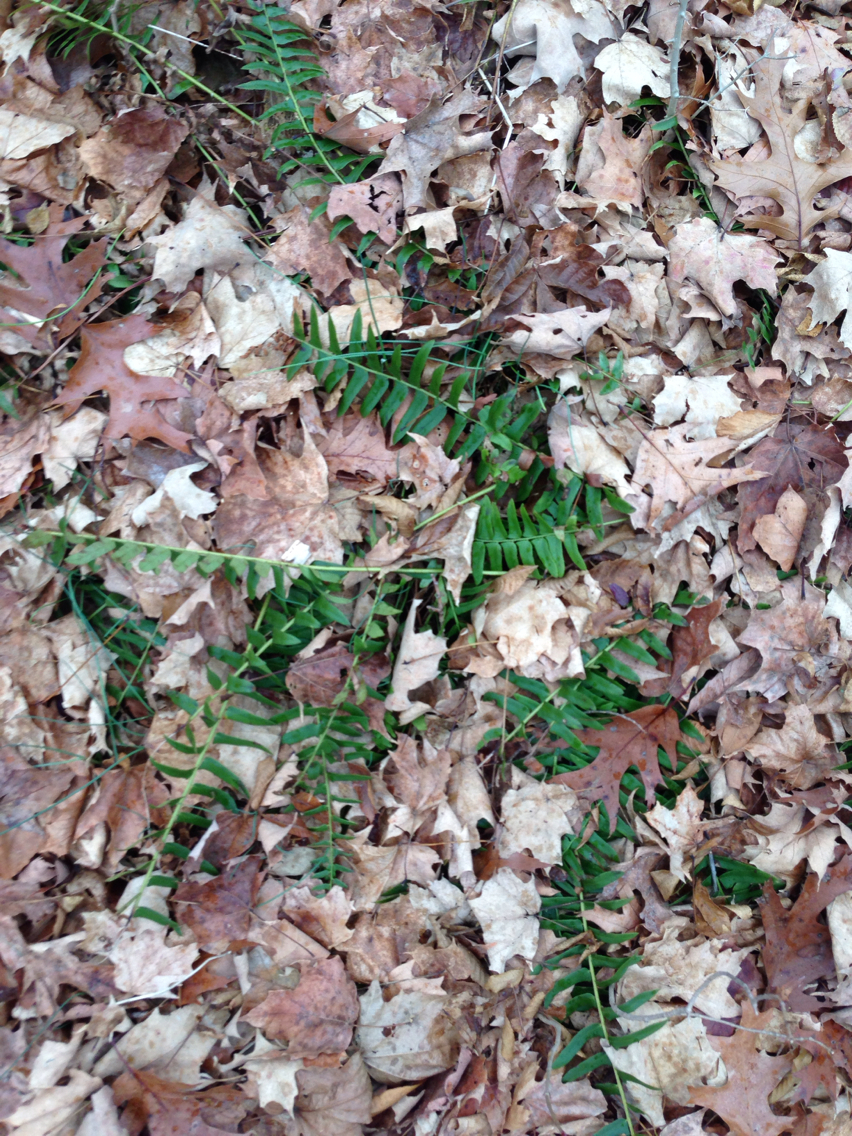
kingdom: Plantae
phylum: Tracheophyta
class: Polypodiopsida
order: Polypodiales
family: Dryopteridaceae
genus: Polystichum
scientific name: Polystichum acrostichoides
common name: Christmas fern
